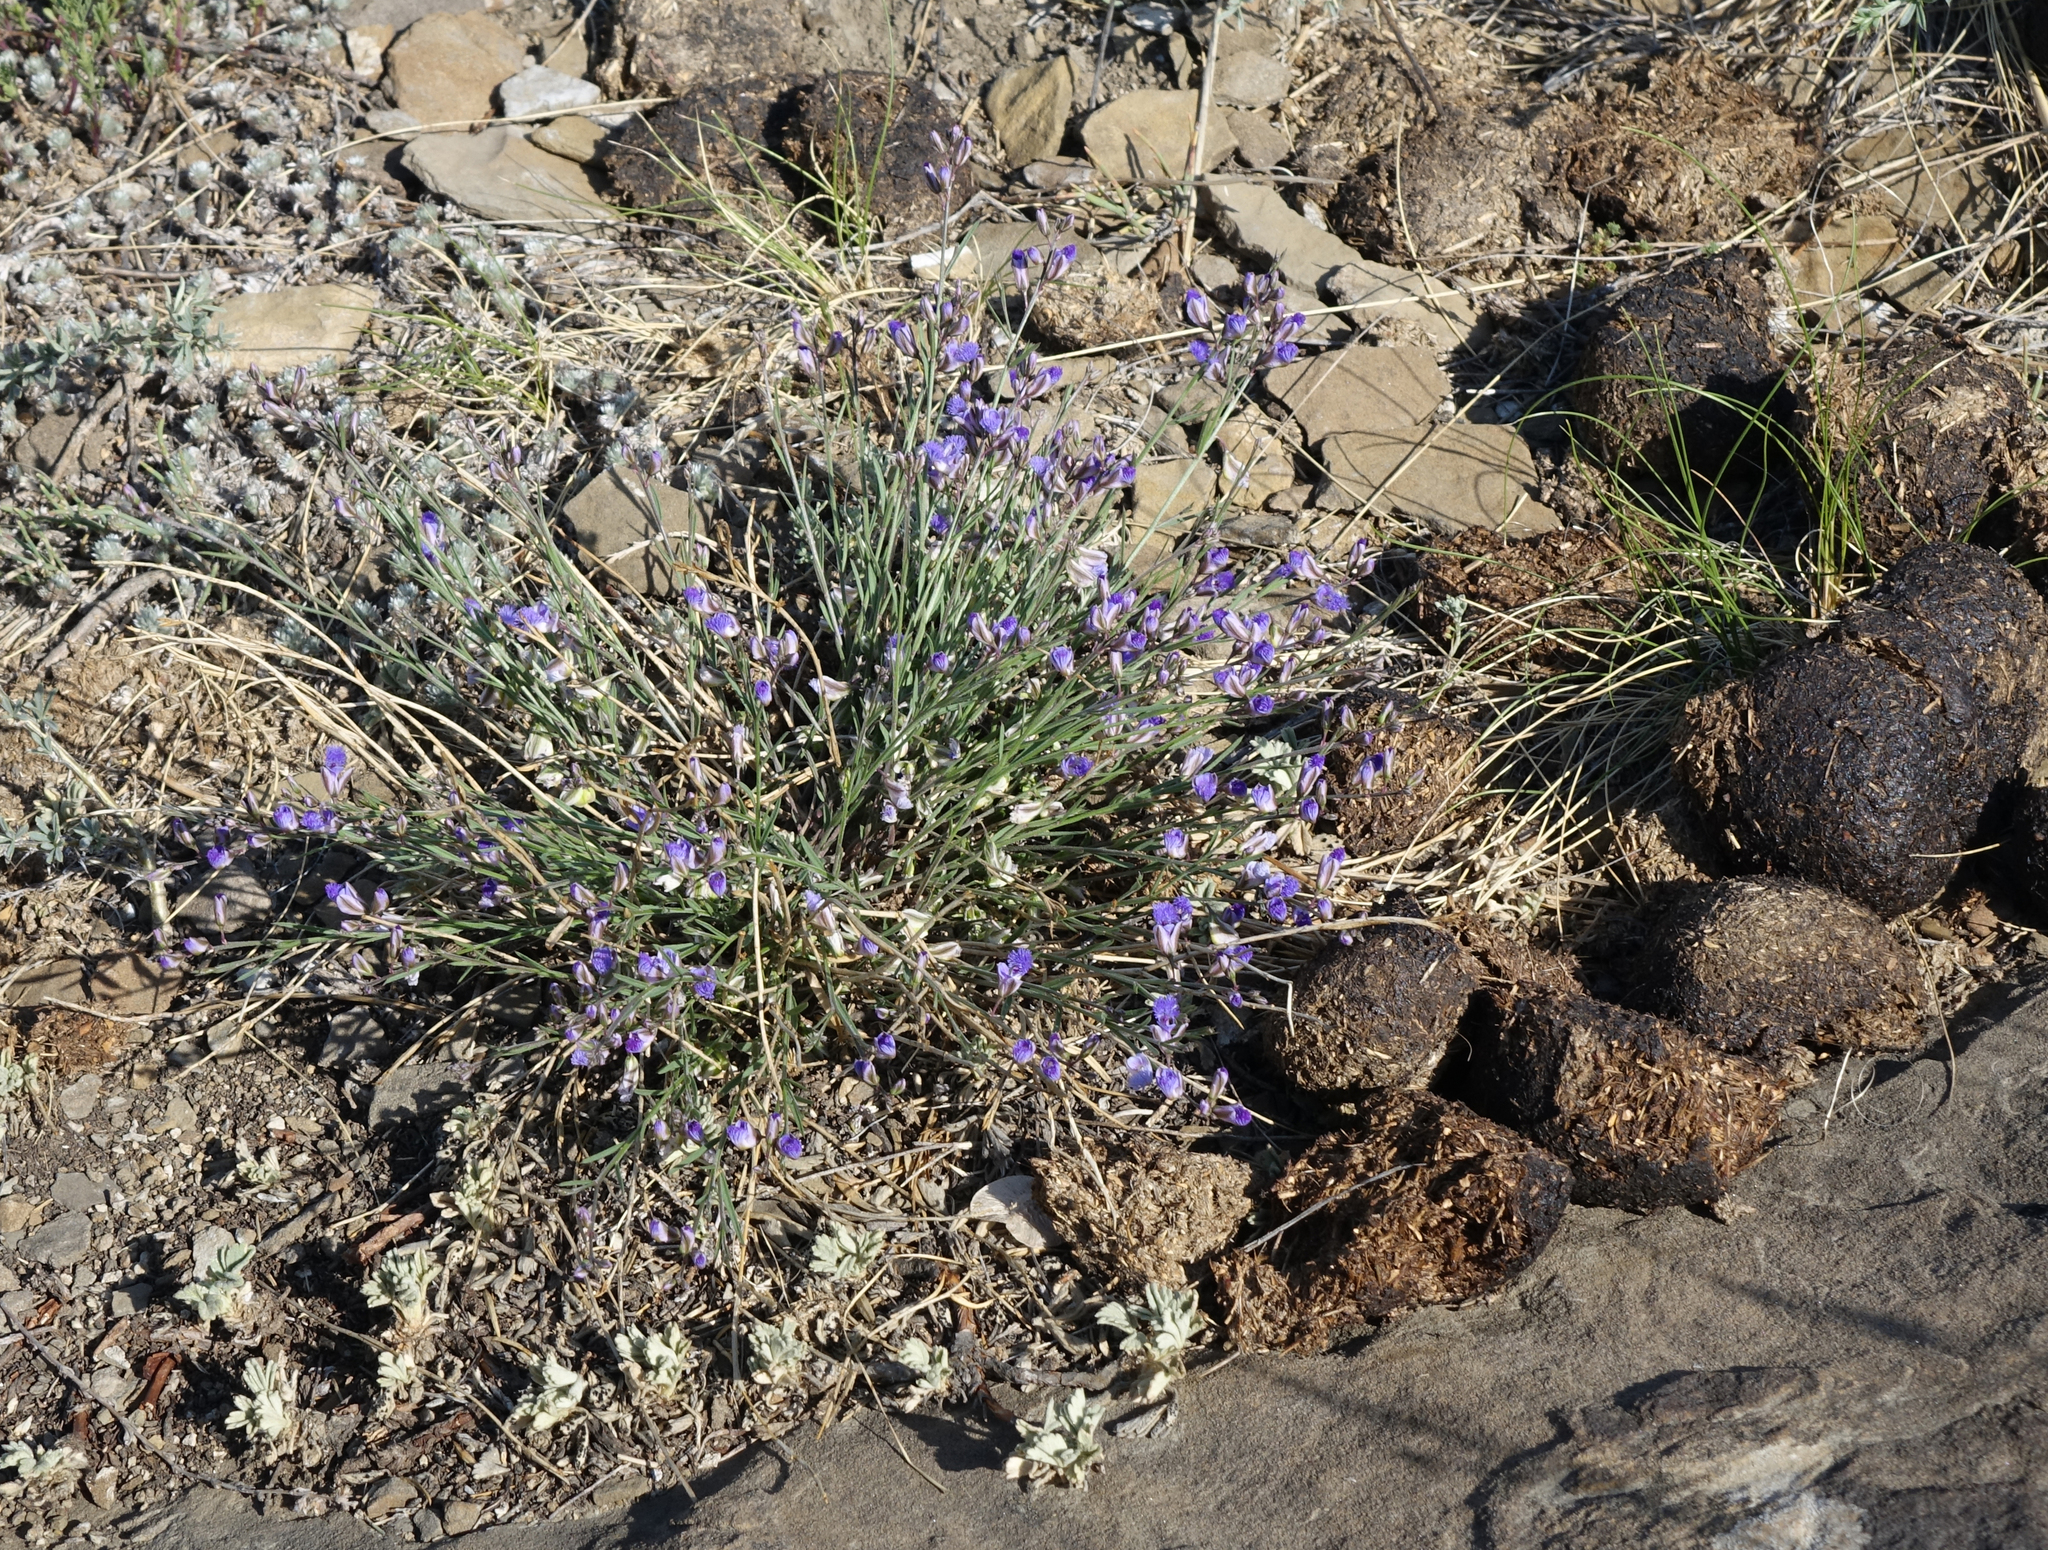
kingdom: Plantae
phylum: Tracheophyta
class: Magnoliopsida
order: Fabales
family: Polygalaceae
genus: Polygala
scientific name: Polygala tenuifolia
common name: Chinese senega-root
